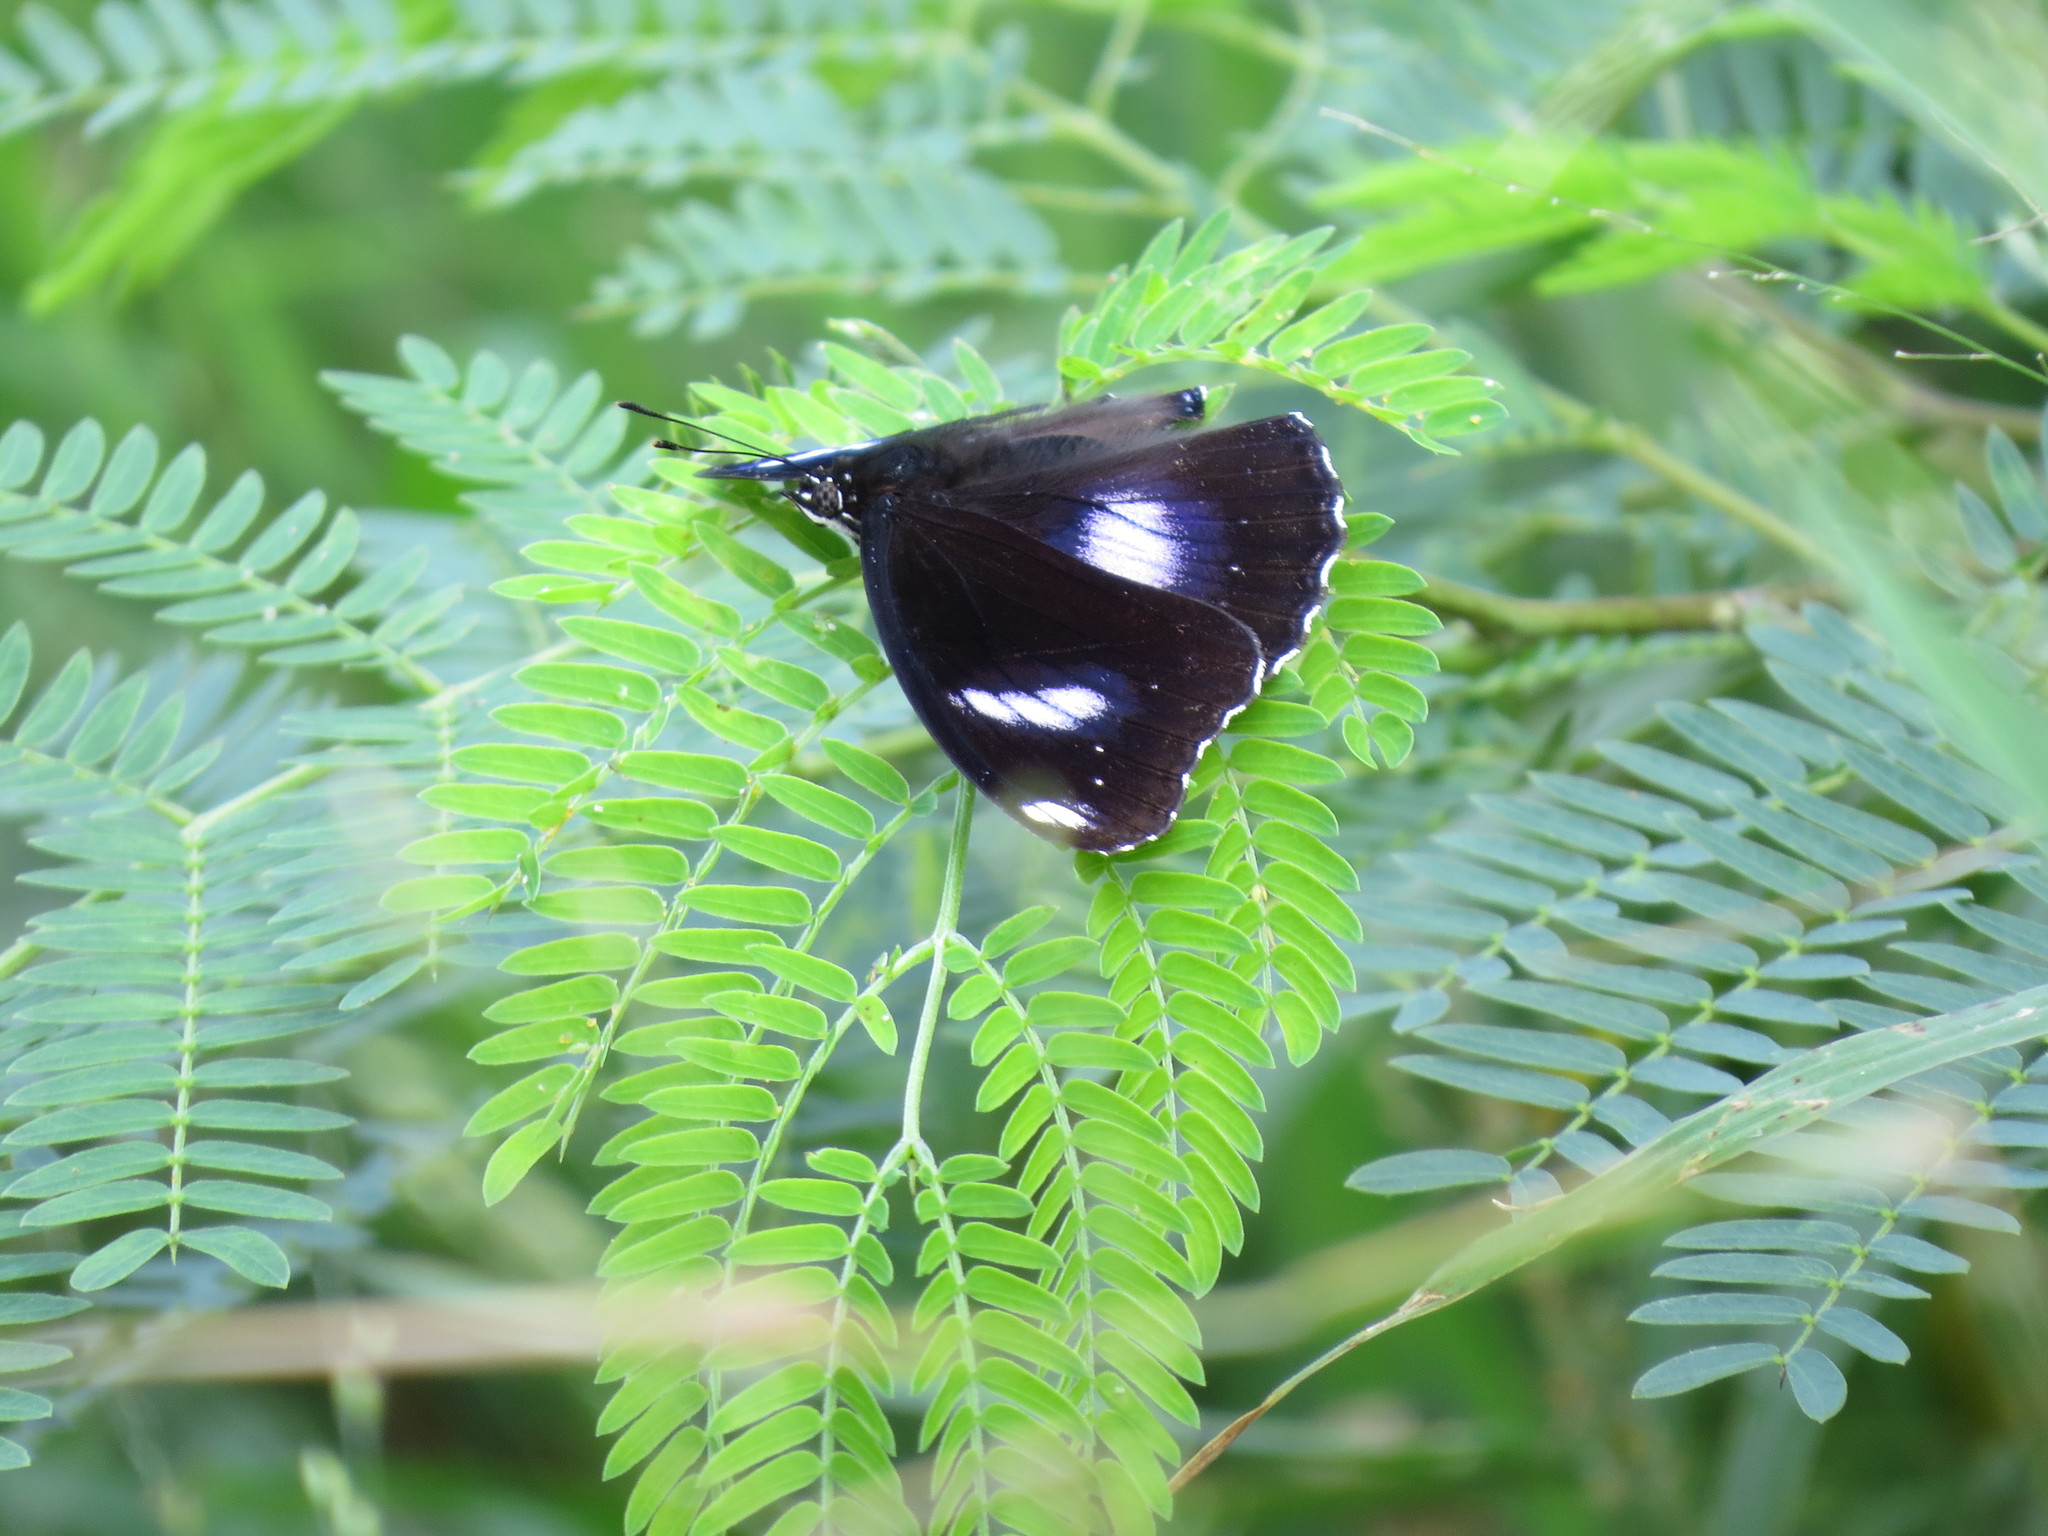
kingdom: Animalia
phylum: Arthropoda
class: Insecta
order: Lepidoptera
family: Nymphalidae
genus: Hypolimnas
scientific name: Hypolimnas bolina
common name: Great eggfly
